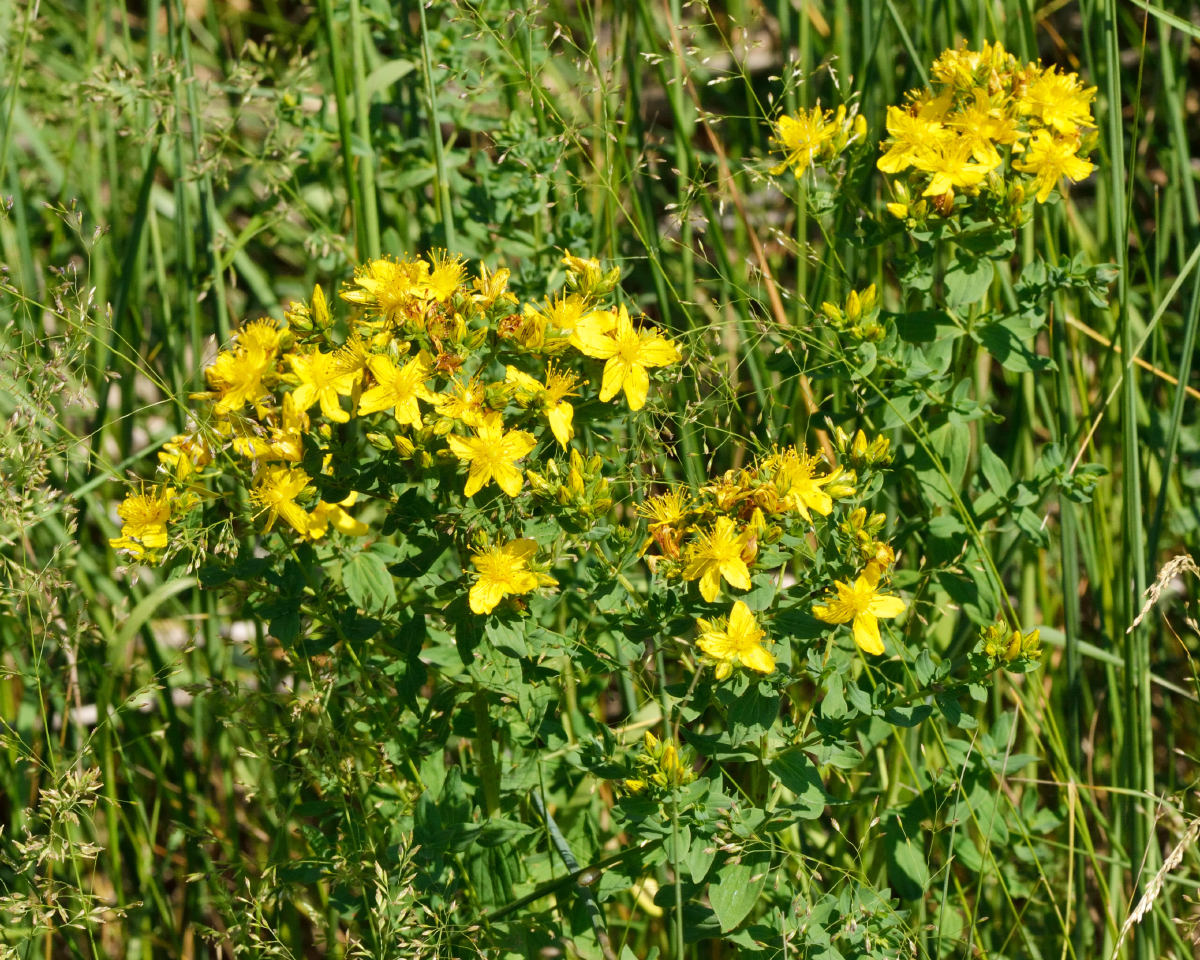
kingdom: Plantae
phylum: Tracheophyta
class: Magnoliopsida
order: Malpighiales
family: Hypericaceae
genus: Hypericum
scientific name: Hypericum perforatum
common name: Common st. johnswort
